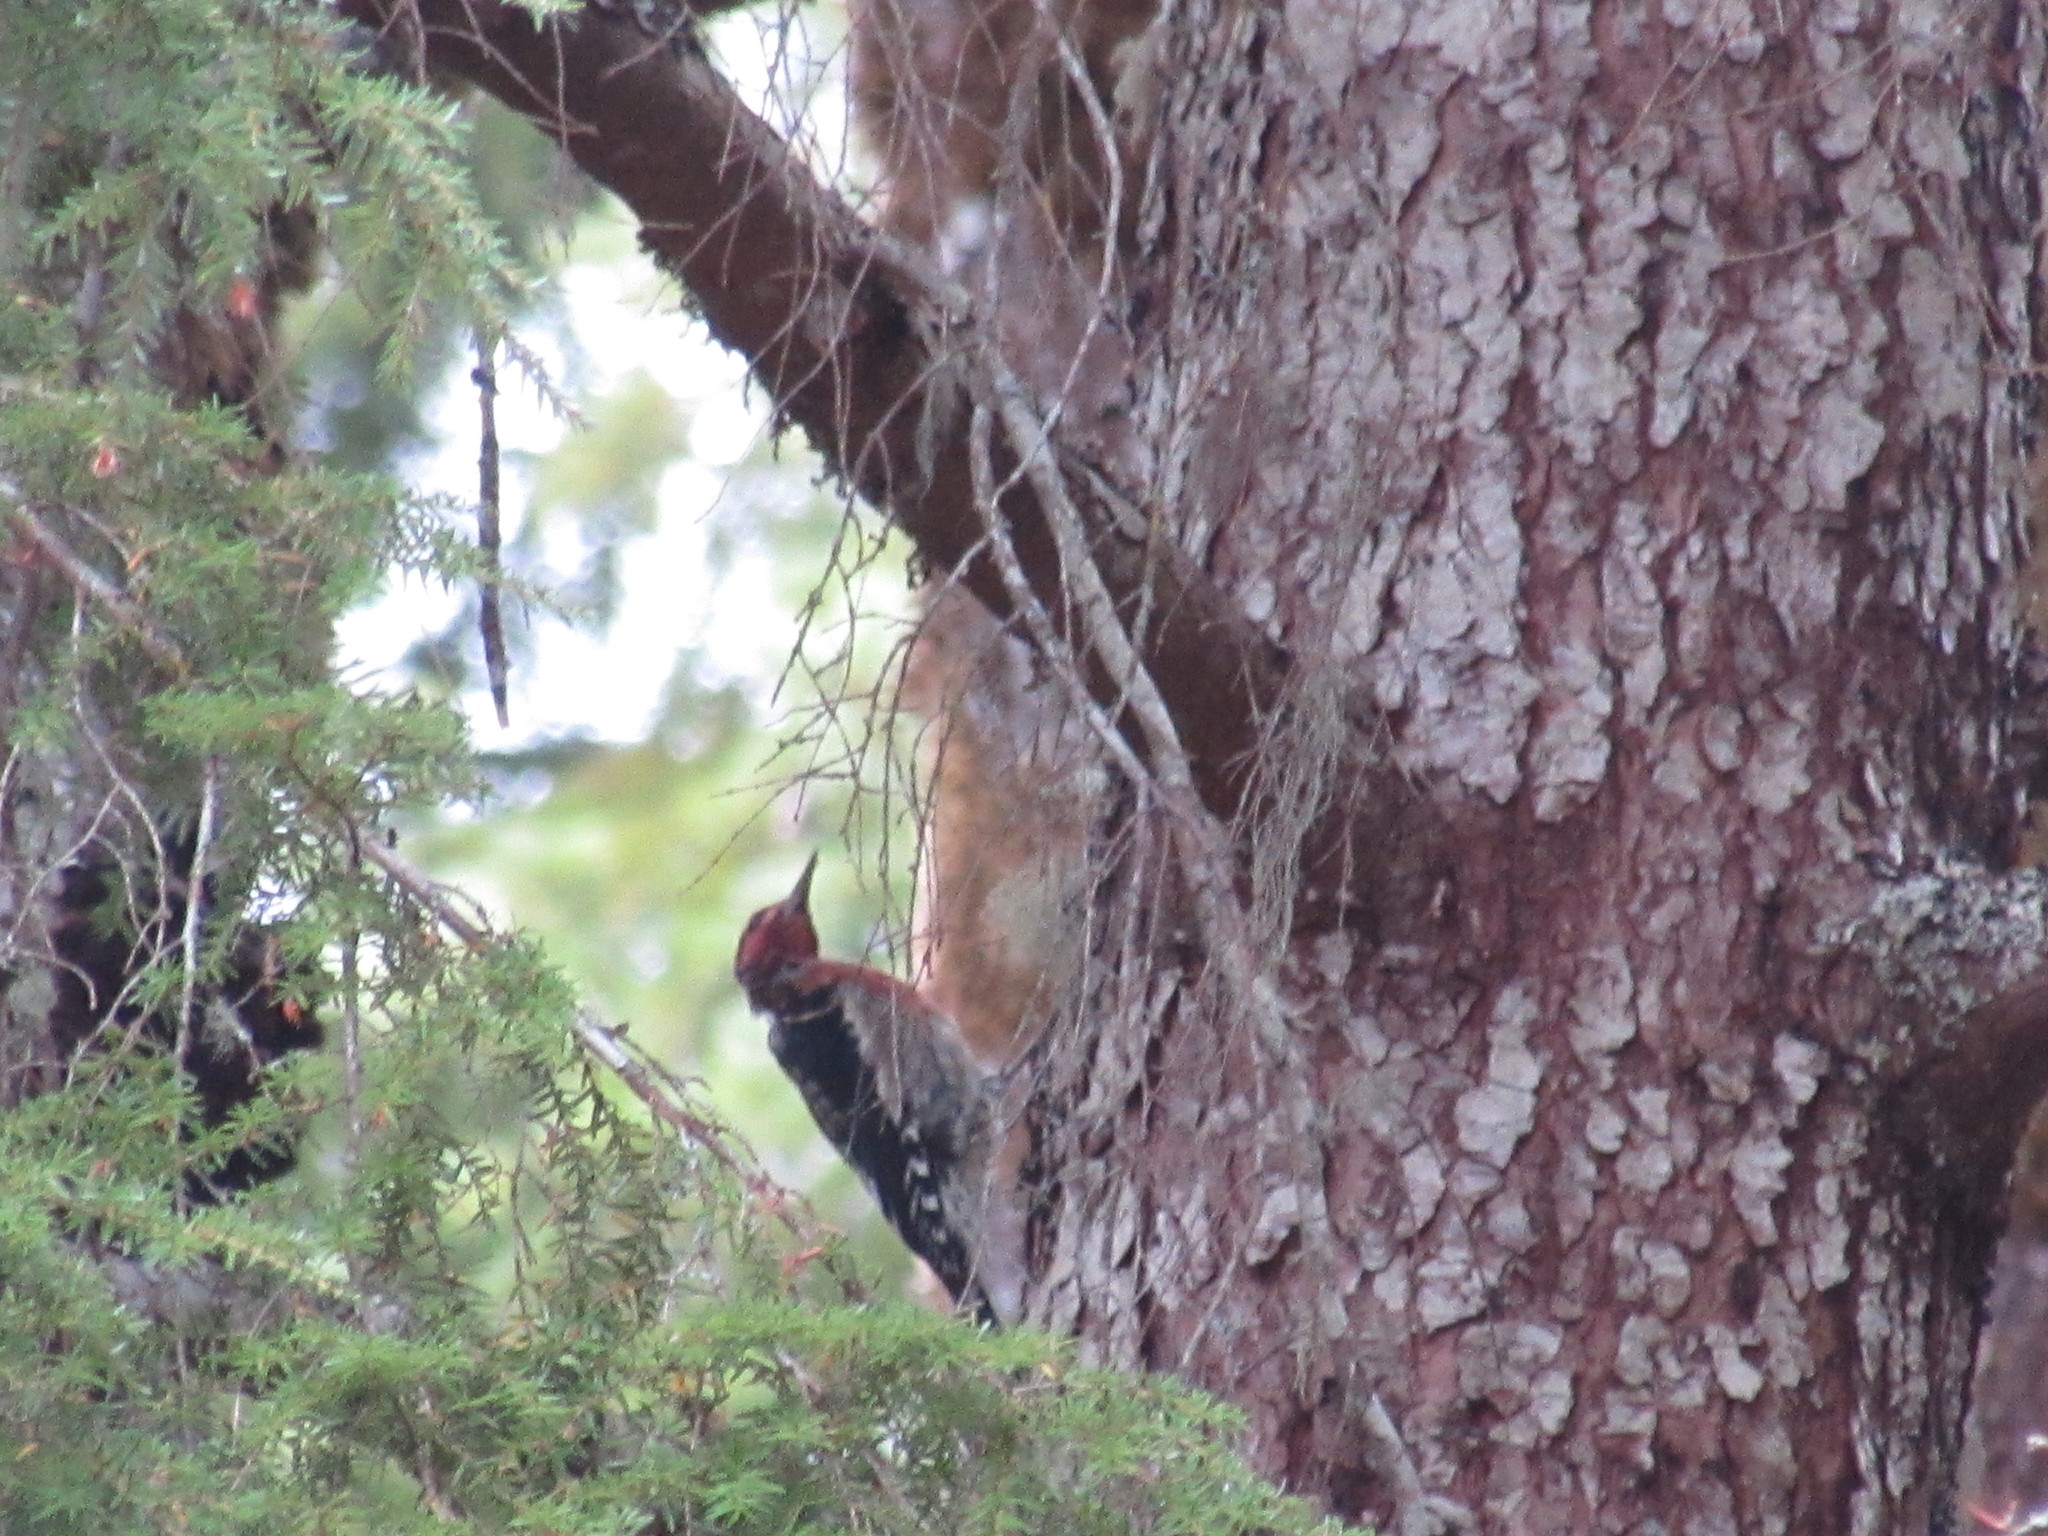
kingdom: Animalia
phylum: Chordata
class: Aves
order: Piciformes
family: Picidae
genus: Sphyrapicus
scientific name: Sphyrapicus ruber
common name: Red-breasted sapsucker
